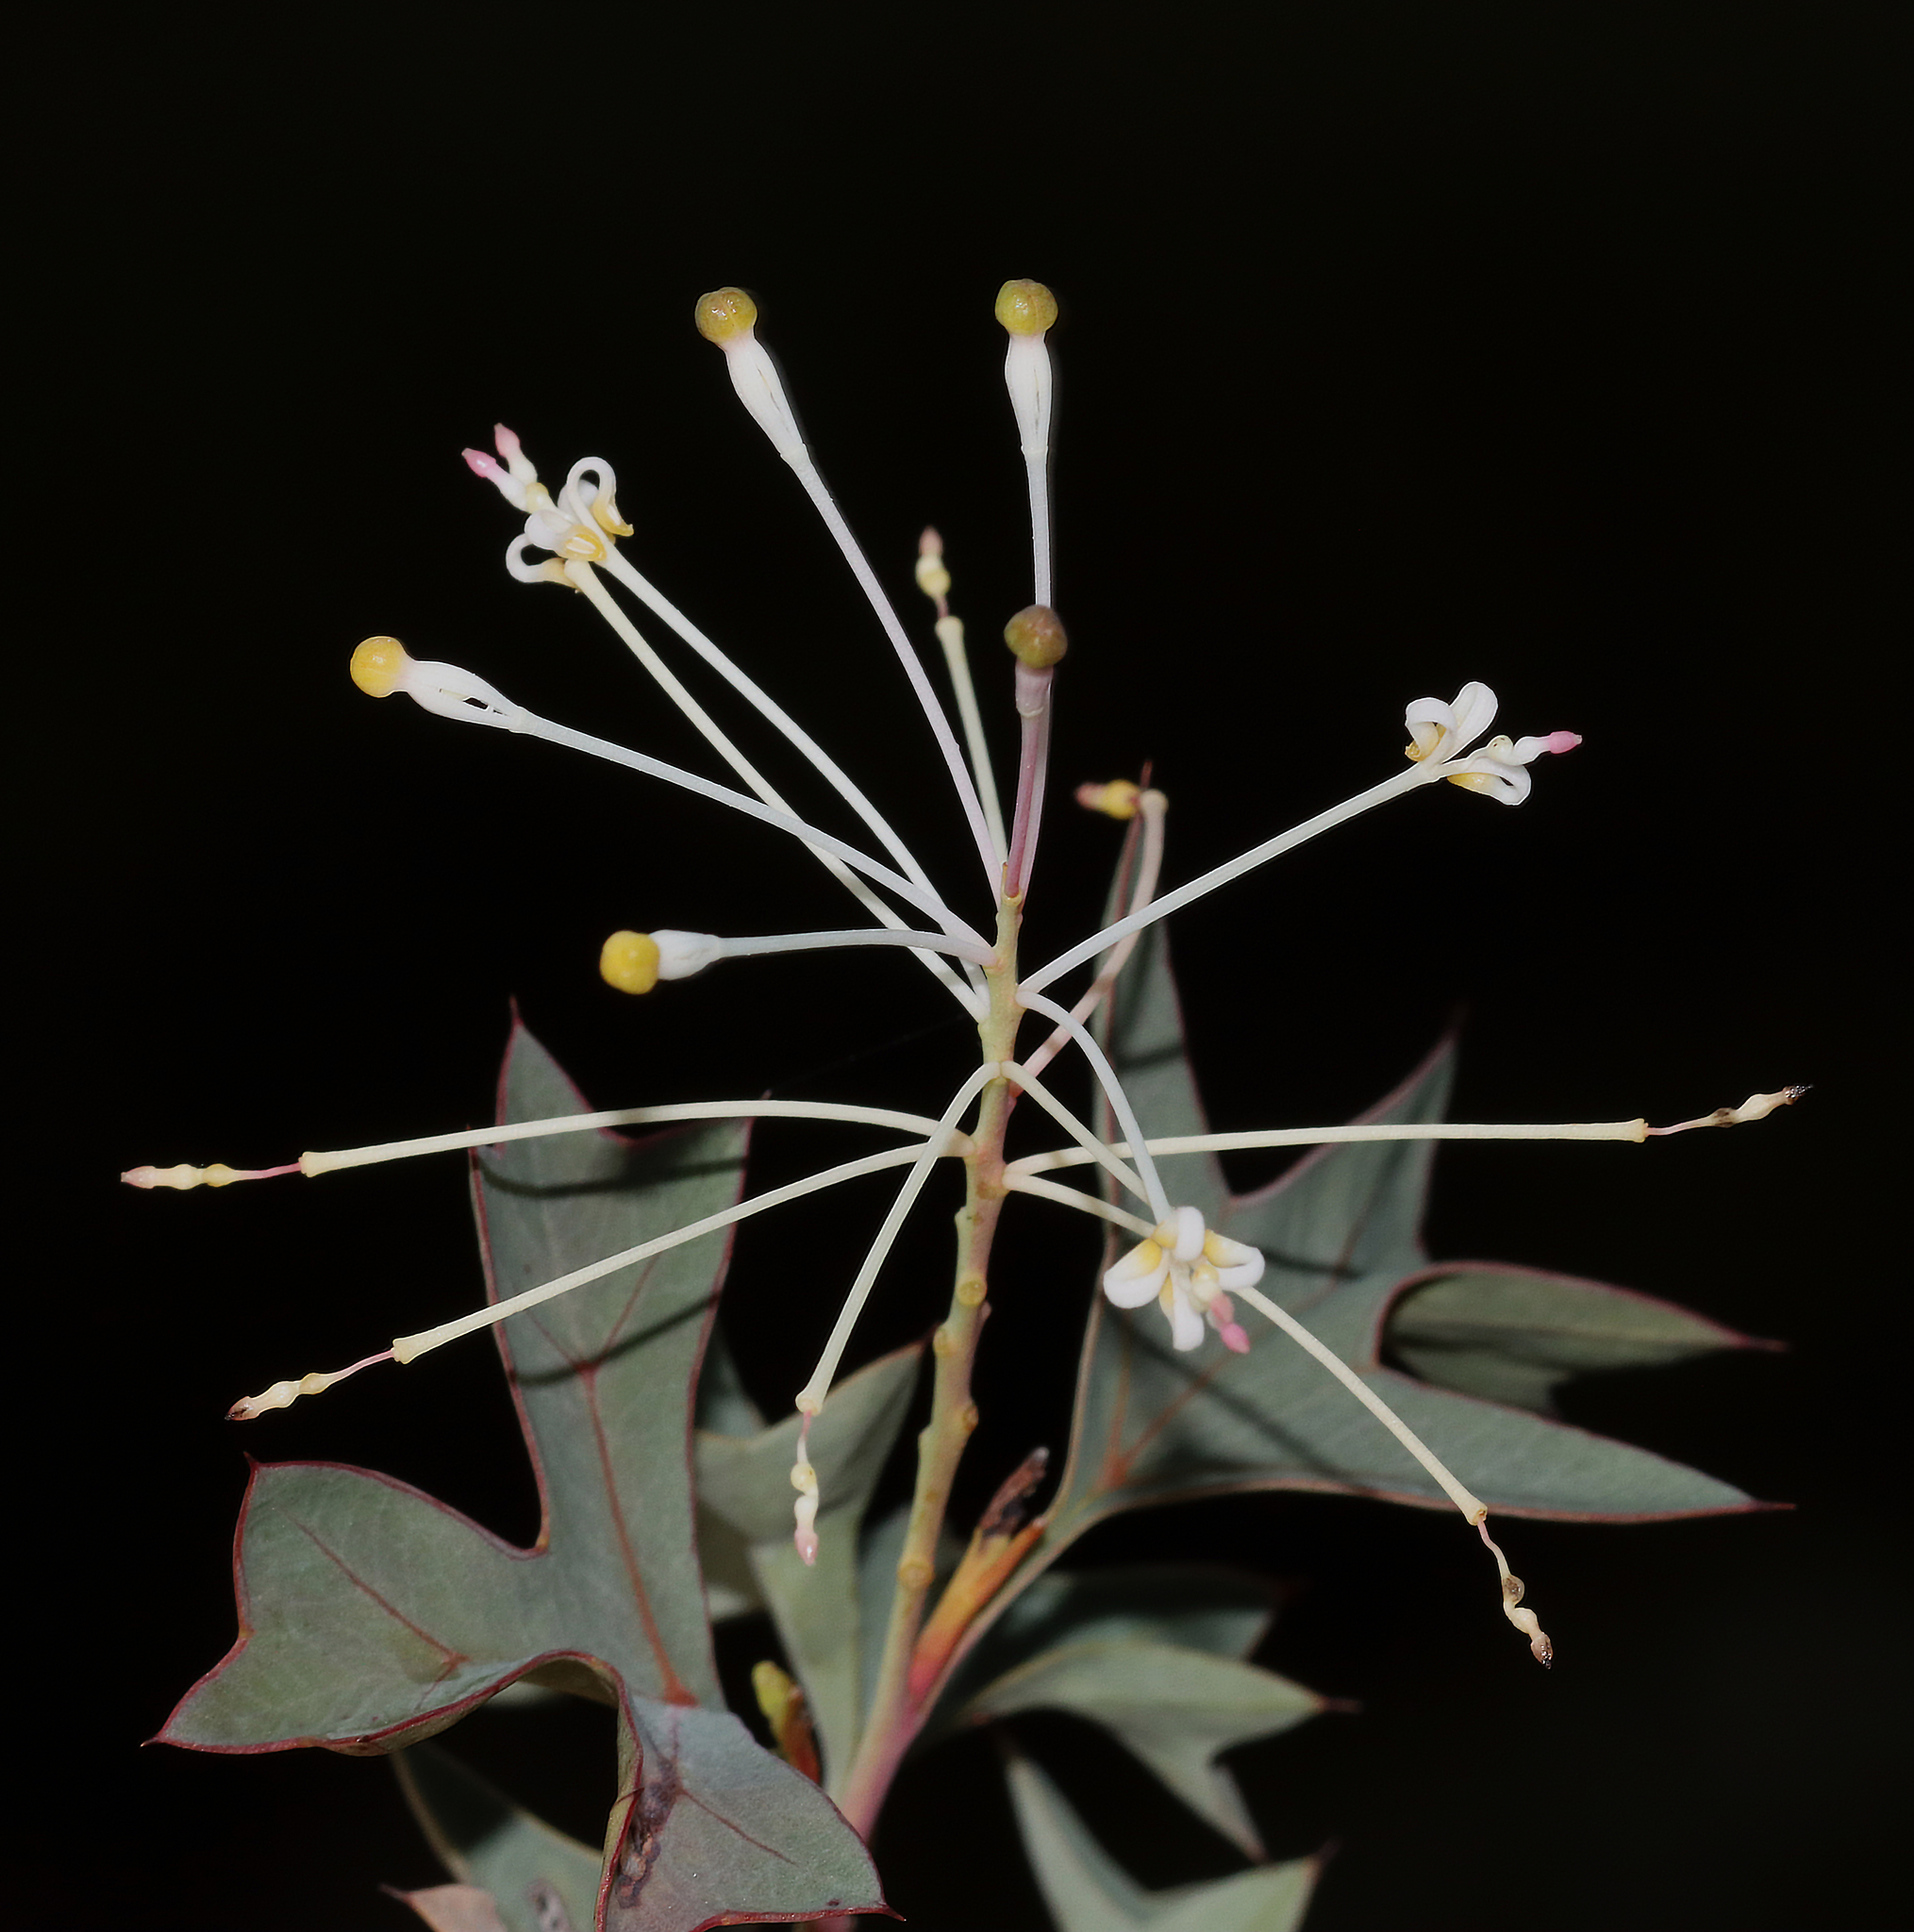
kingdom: Plantae
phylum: Tracheophyta
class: Magnoliopsida
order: Proteales
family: Proteaceae
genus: Grevillea
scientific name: Grevillea manglesii
